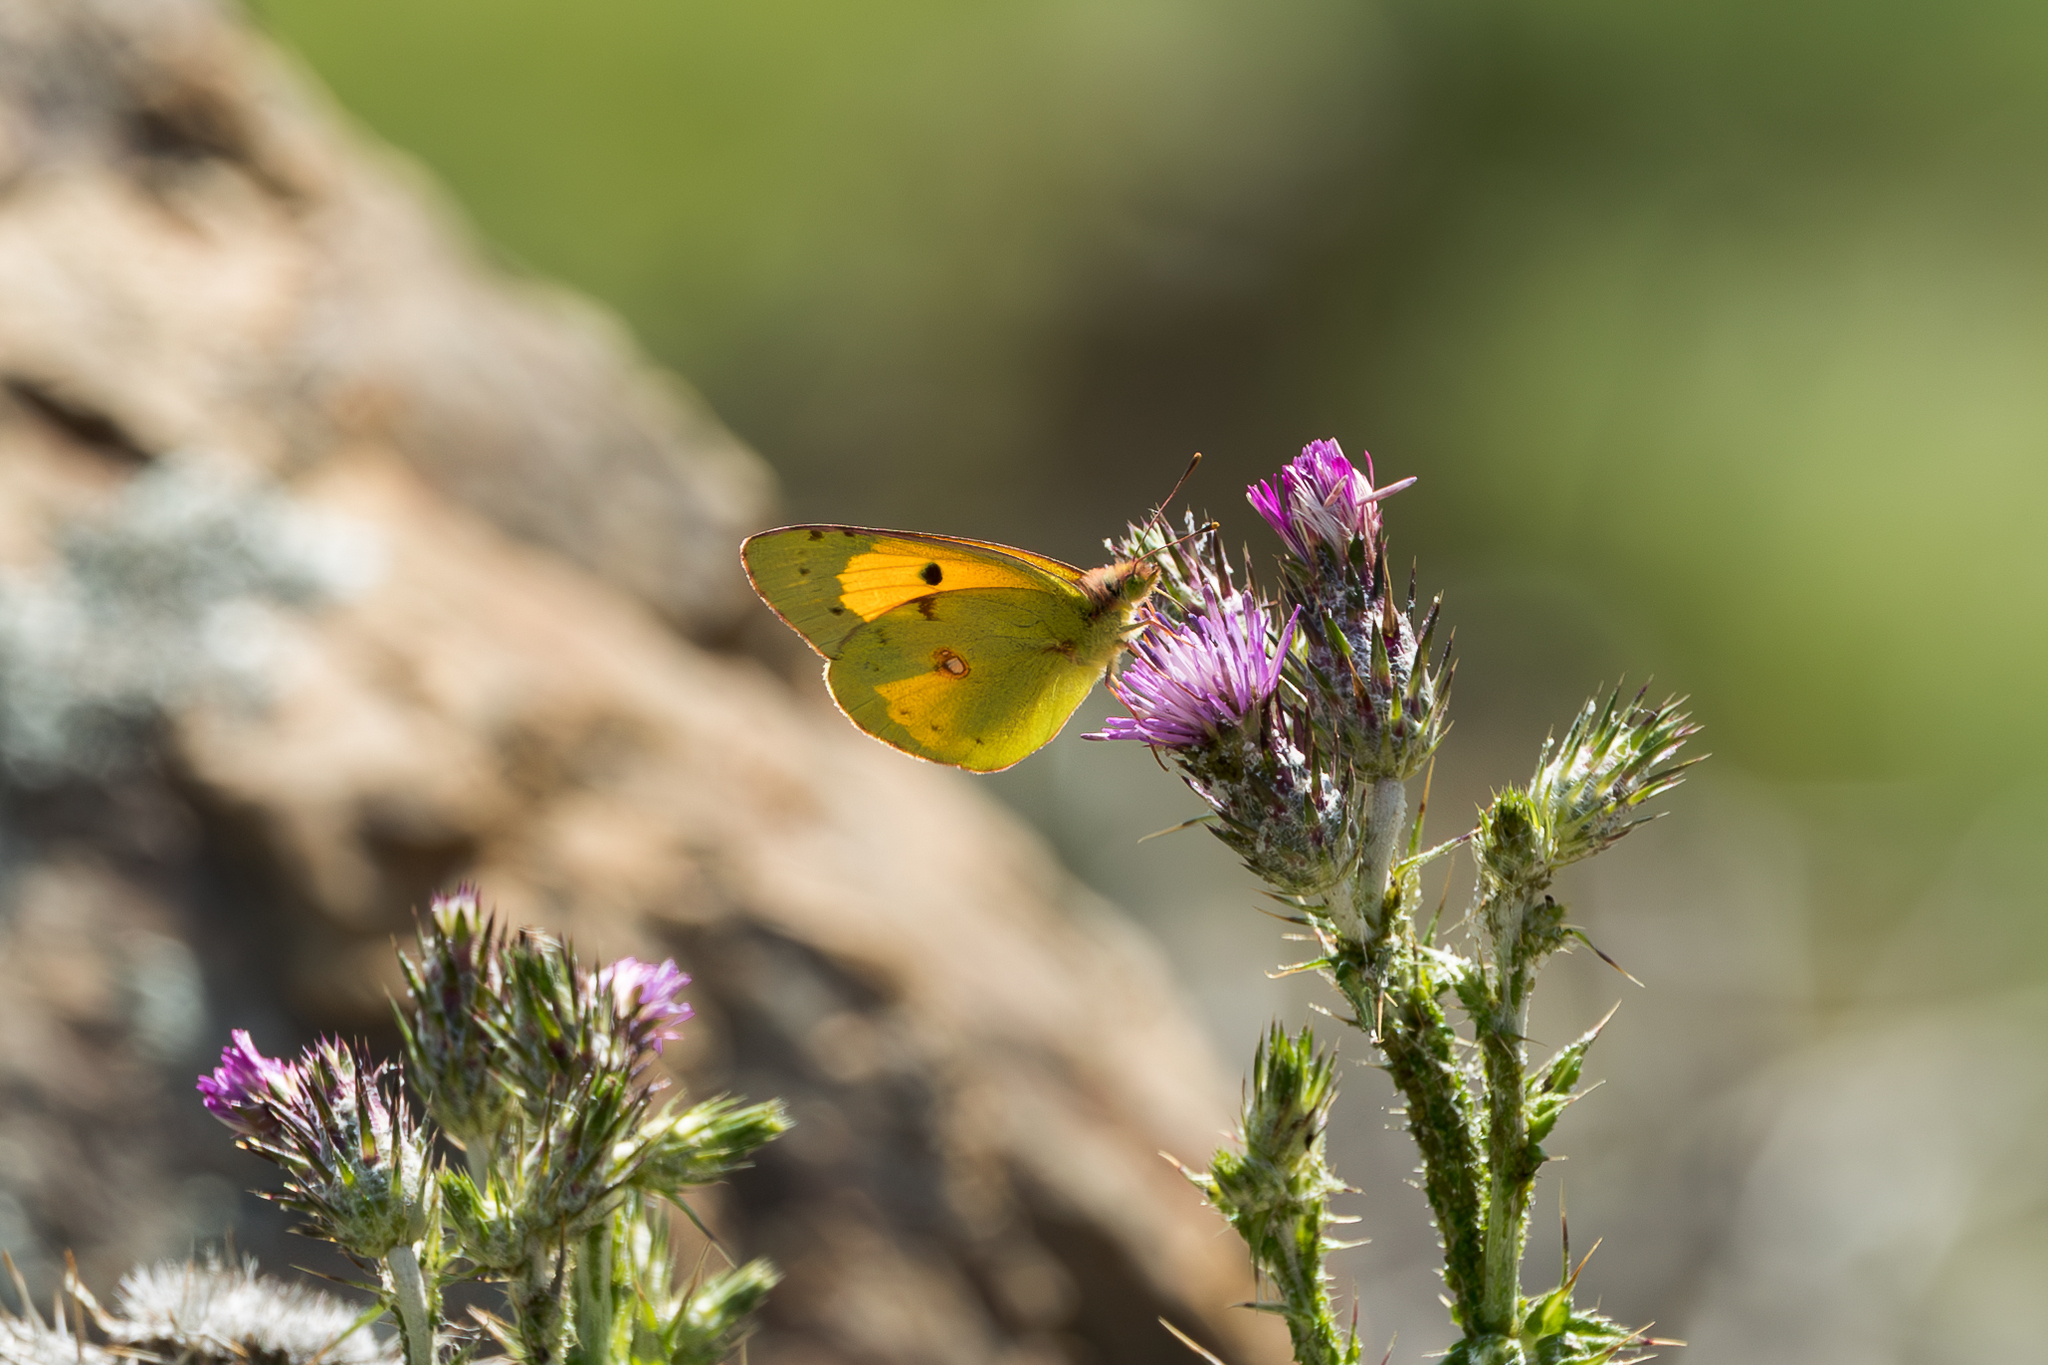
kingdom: Animalia
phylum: Arthropoda
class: Insecta
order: Lepidoptera
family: Pieridae
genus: Colias
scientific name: Colias croceus
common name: Clouded yellow
